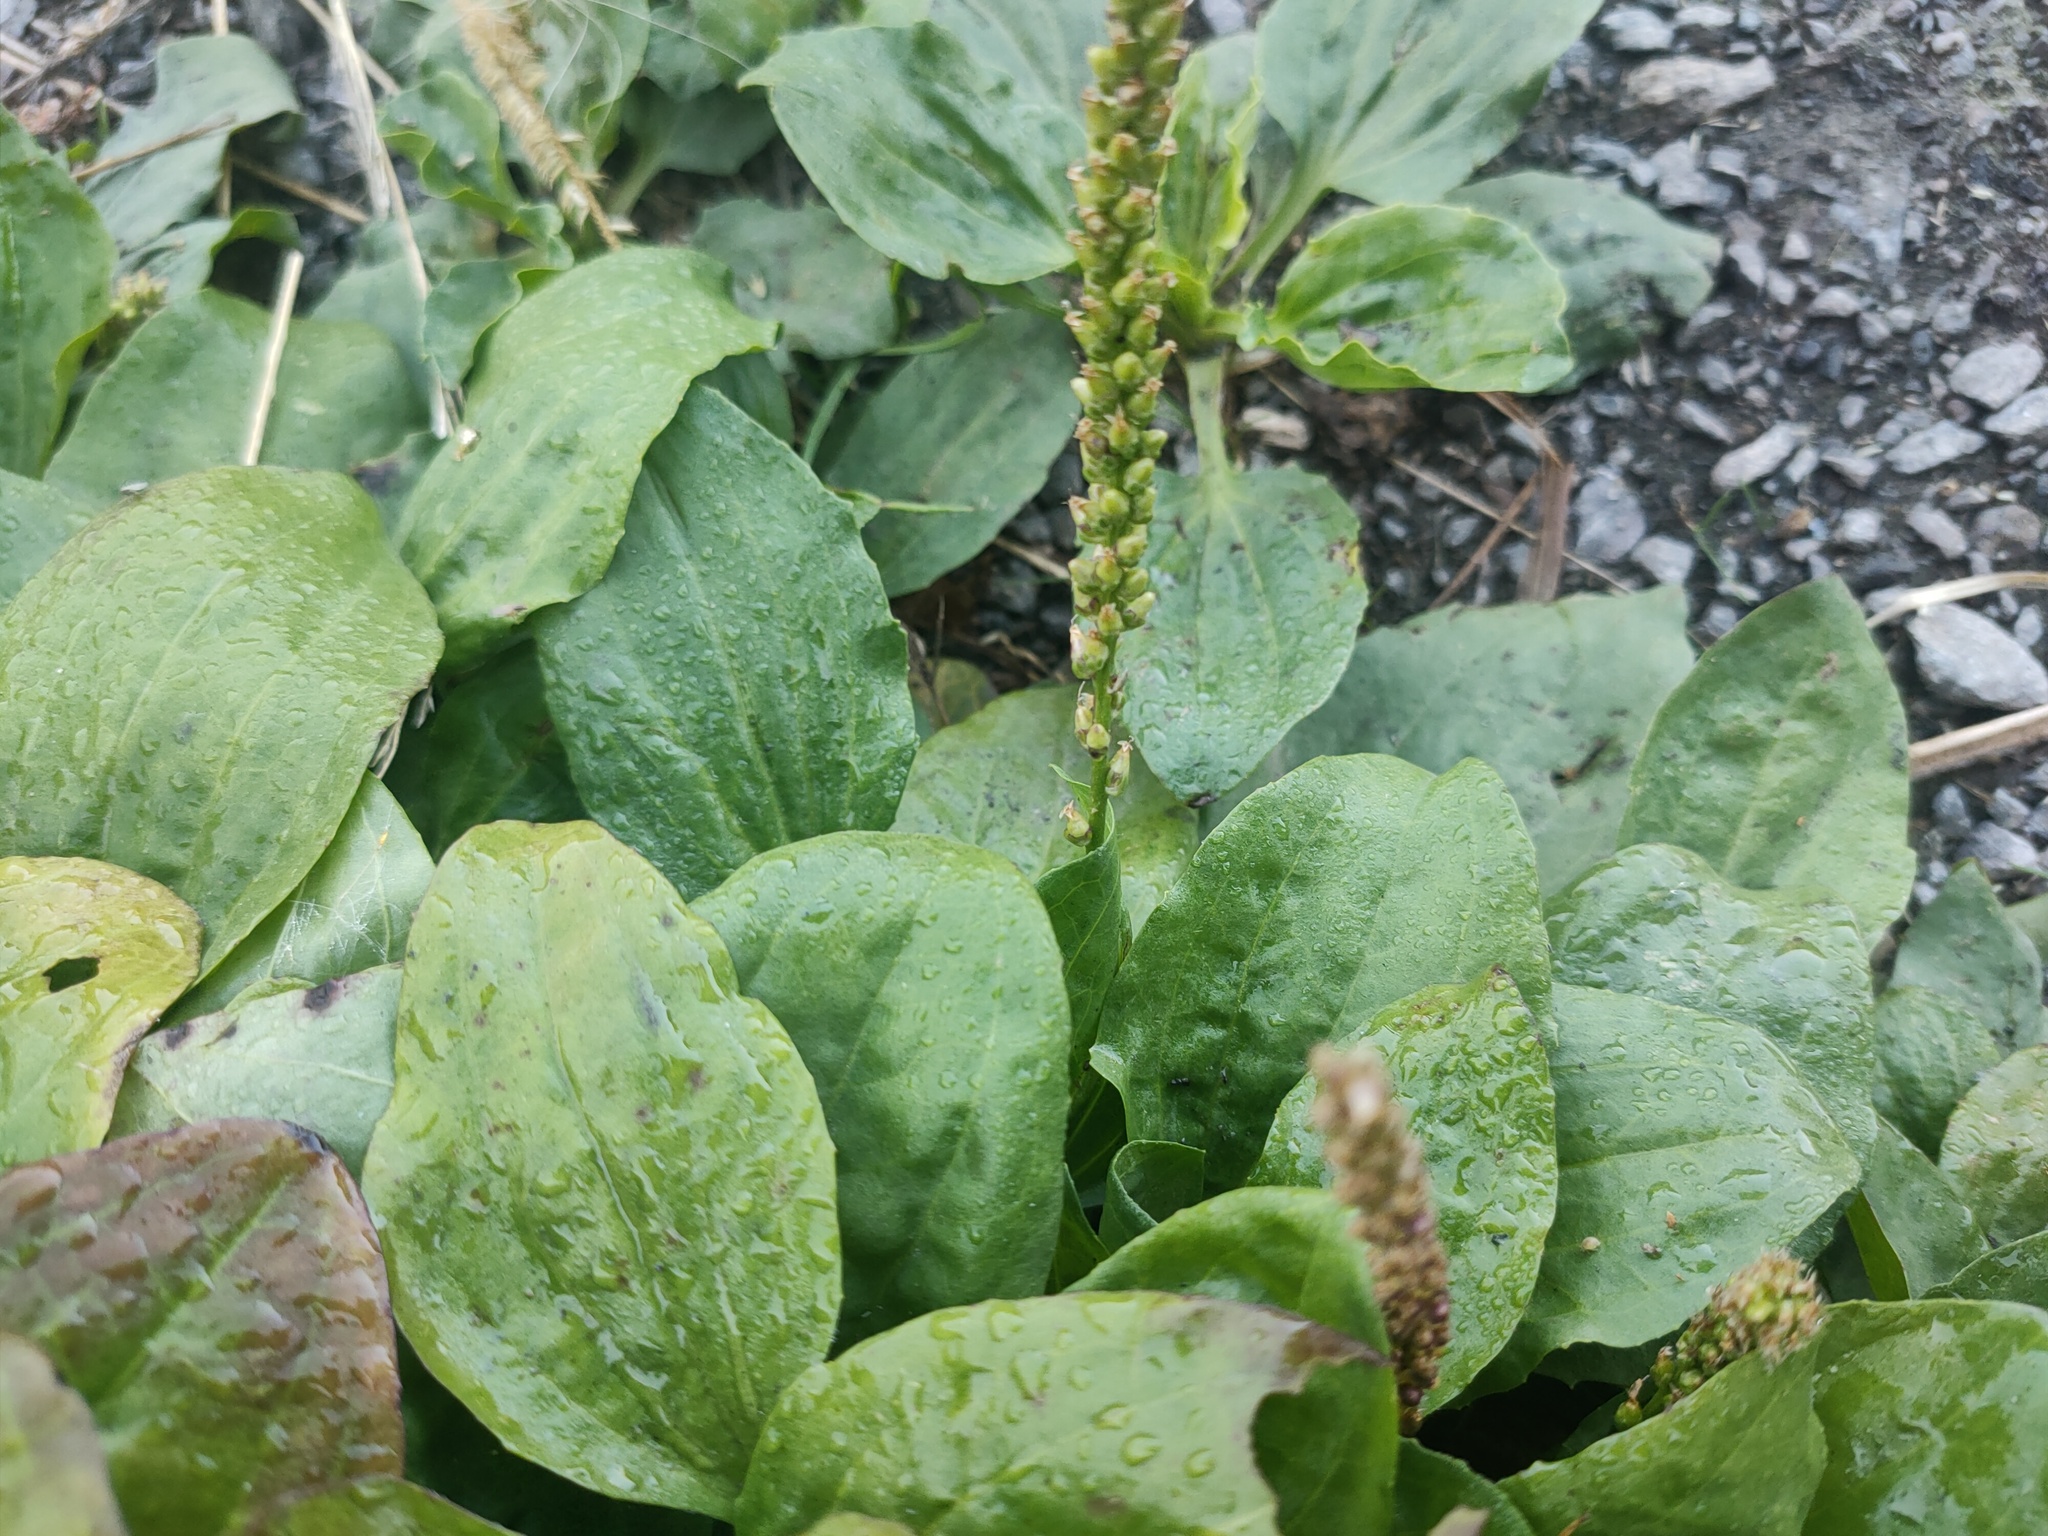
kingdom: Plantae
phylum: Tracheophyta
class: Magnoliopsida
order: Lamiales
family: Plantaginaceae
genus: Plantago
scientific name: Plantago major
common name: Common plantain
